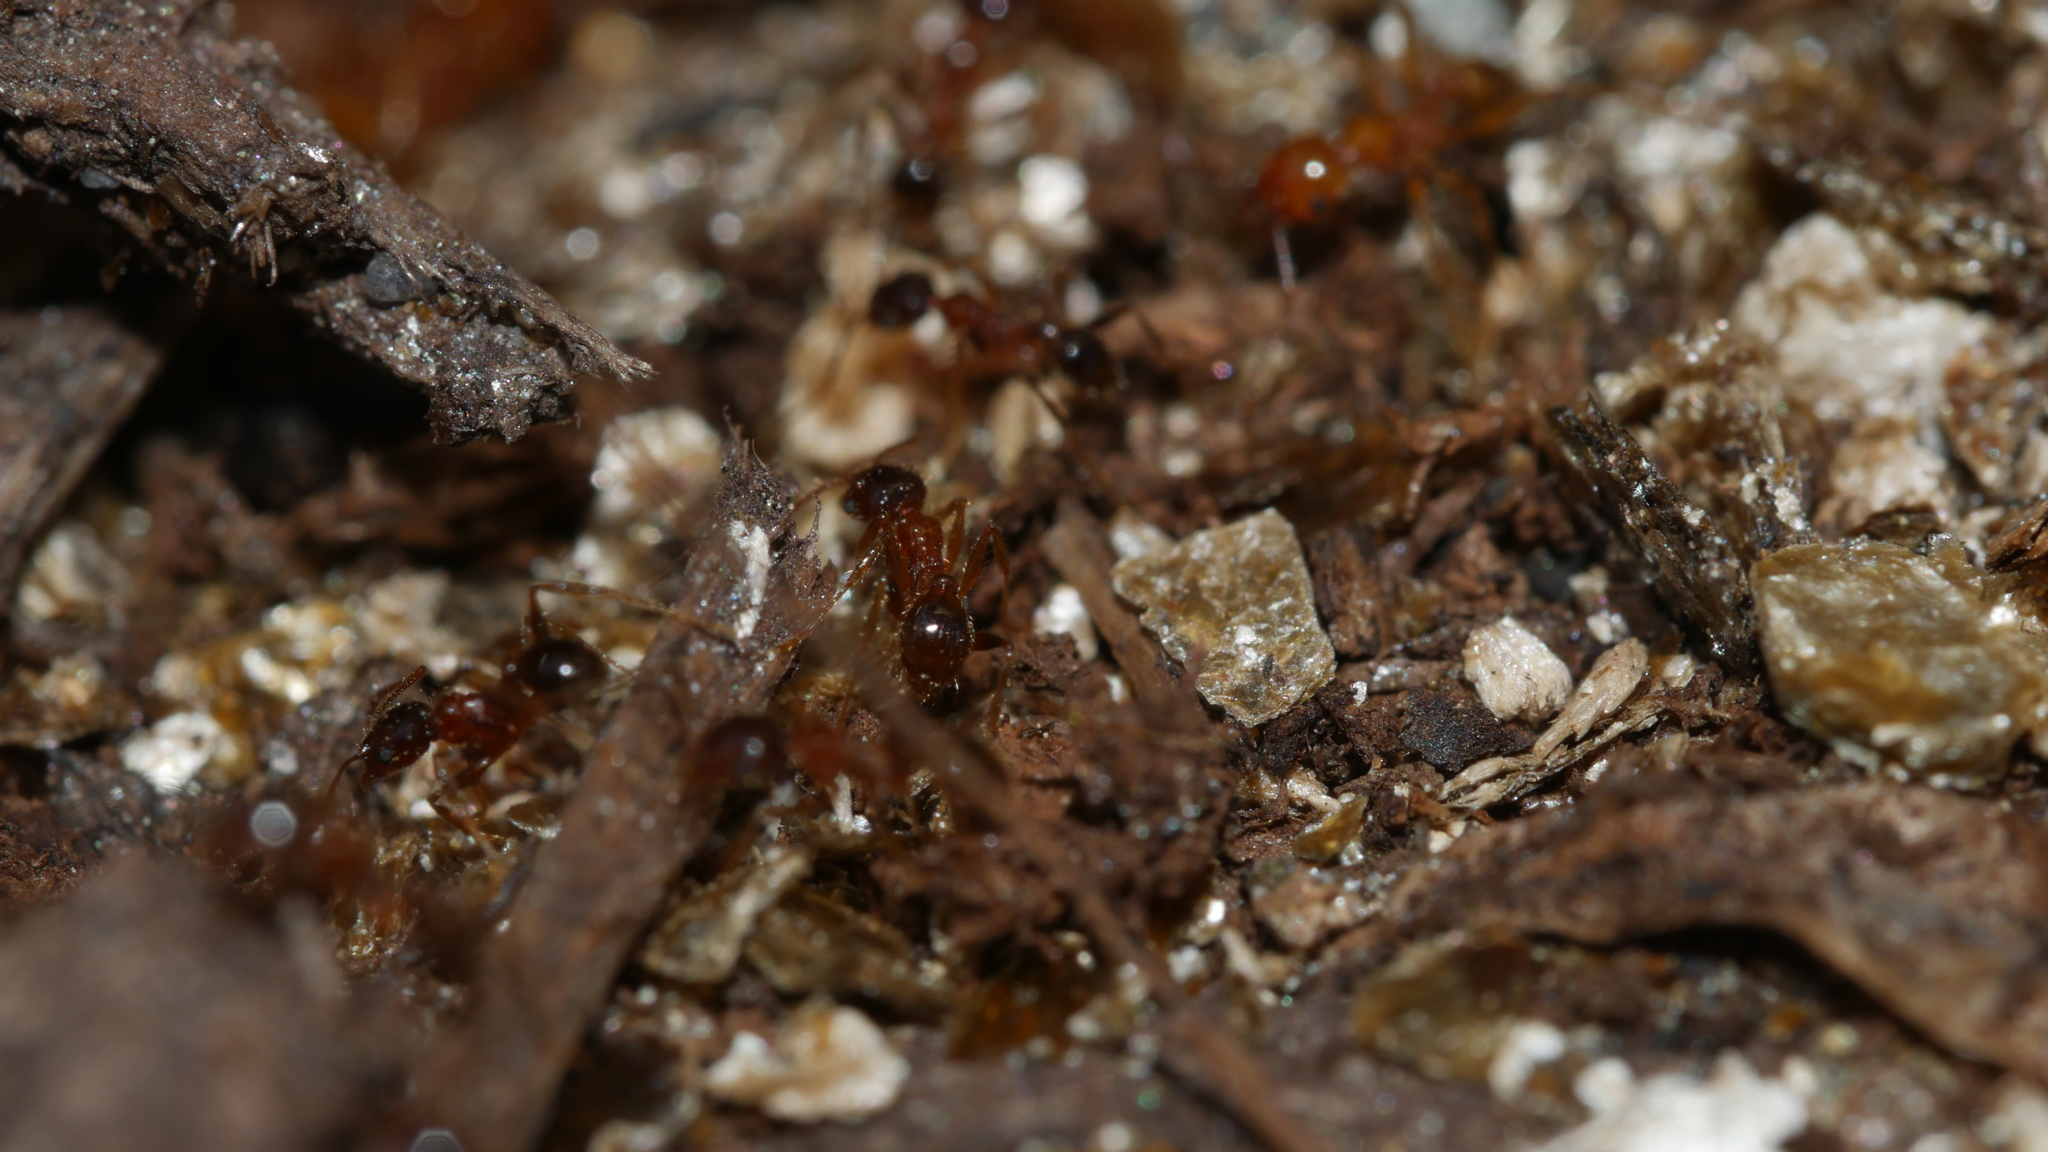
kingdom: Animalia
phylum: Arthropoda
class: Insecta
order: Hymenoptera
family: Formicidae
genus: Pheidole
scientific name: Pheidole dentata
